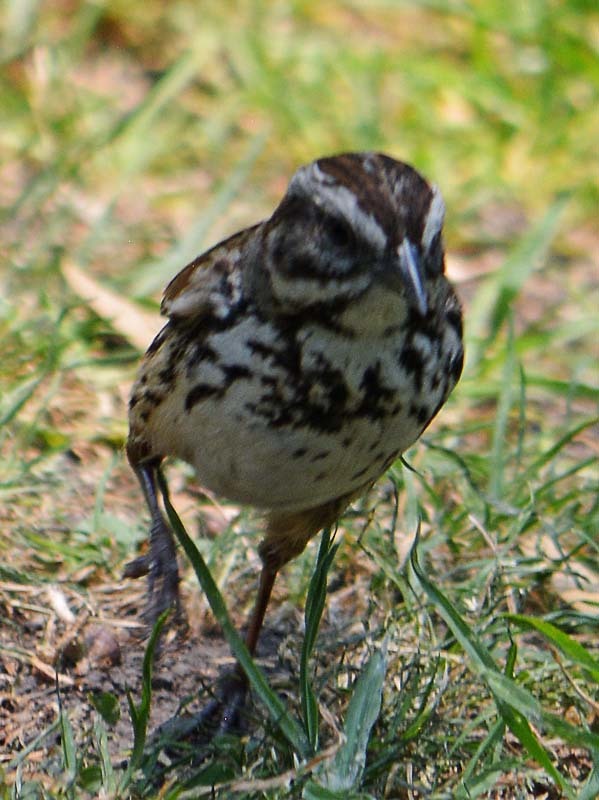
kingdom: Animalia
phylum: Chordata
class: Aves
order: Passeriformes
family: Passerellidae
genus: Melospiza
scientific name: Melospiza melodia
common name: Song sparrow
